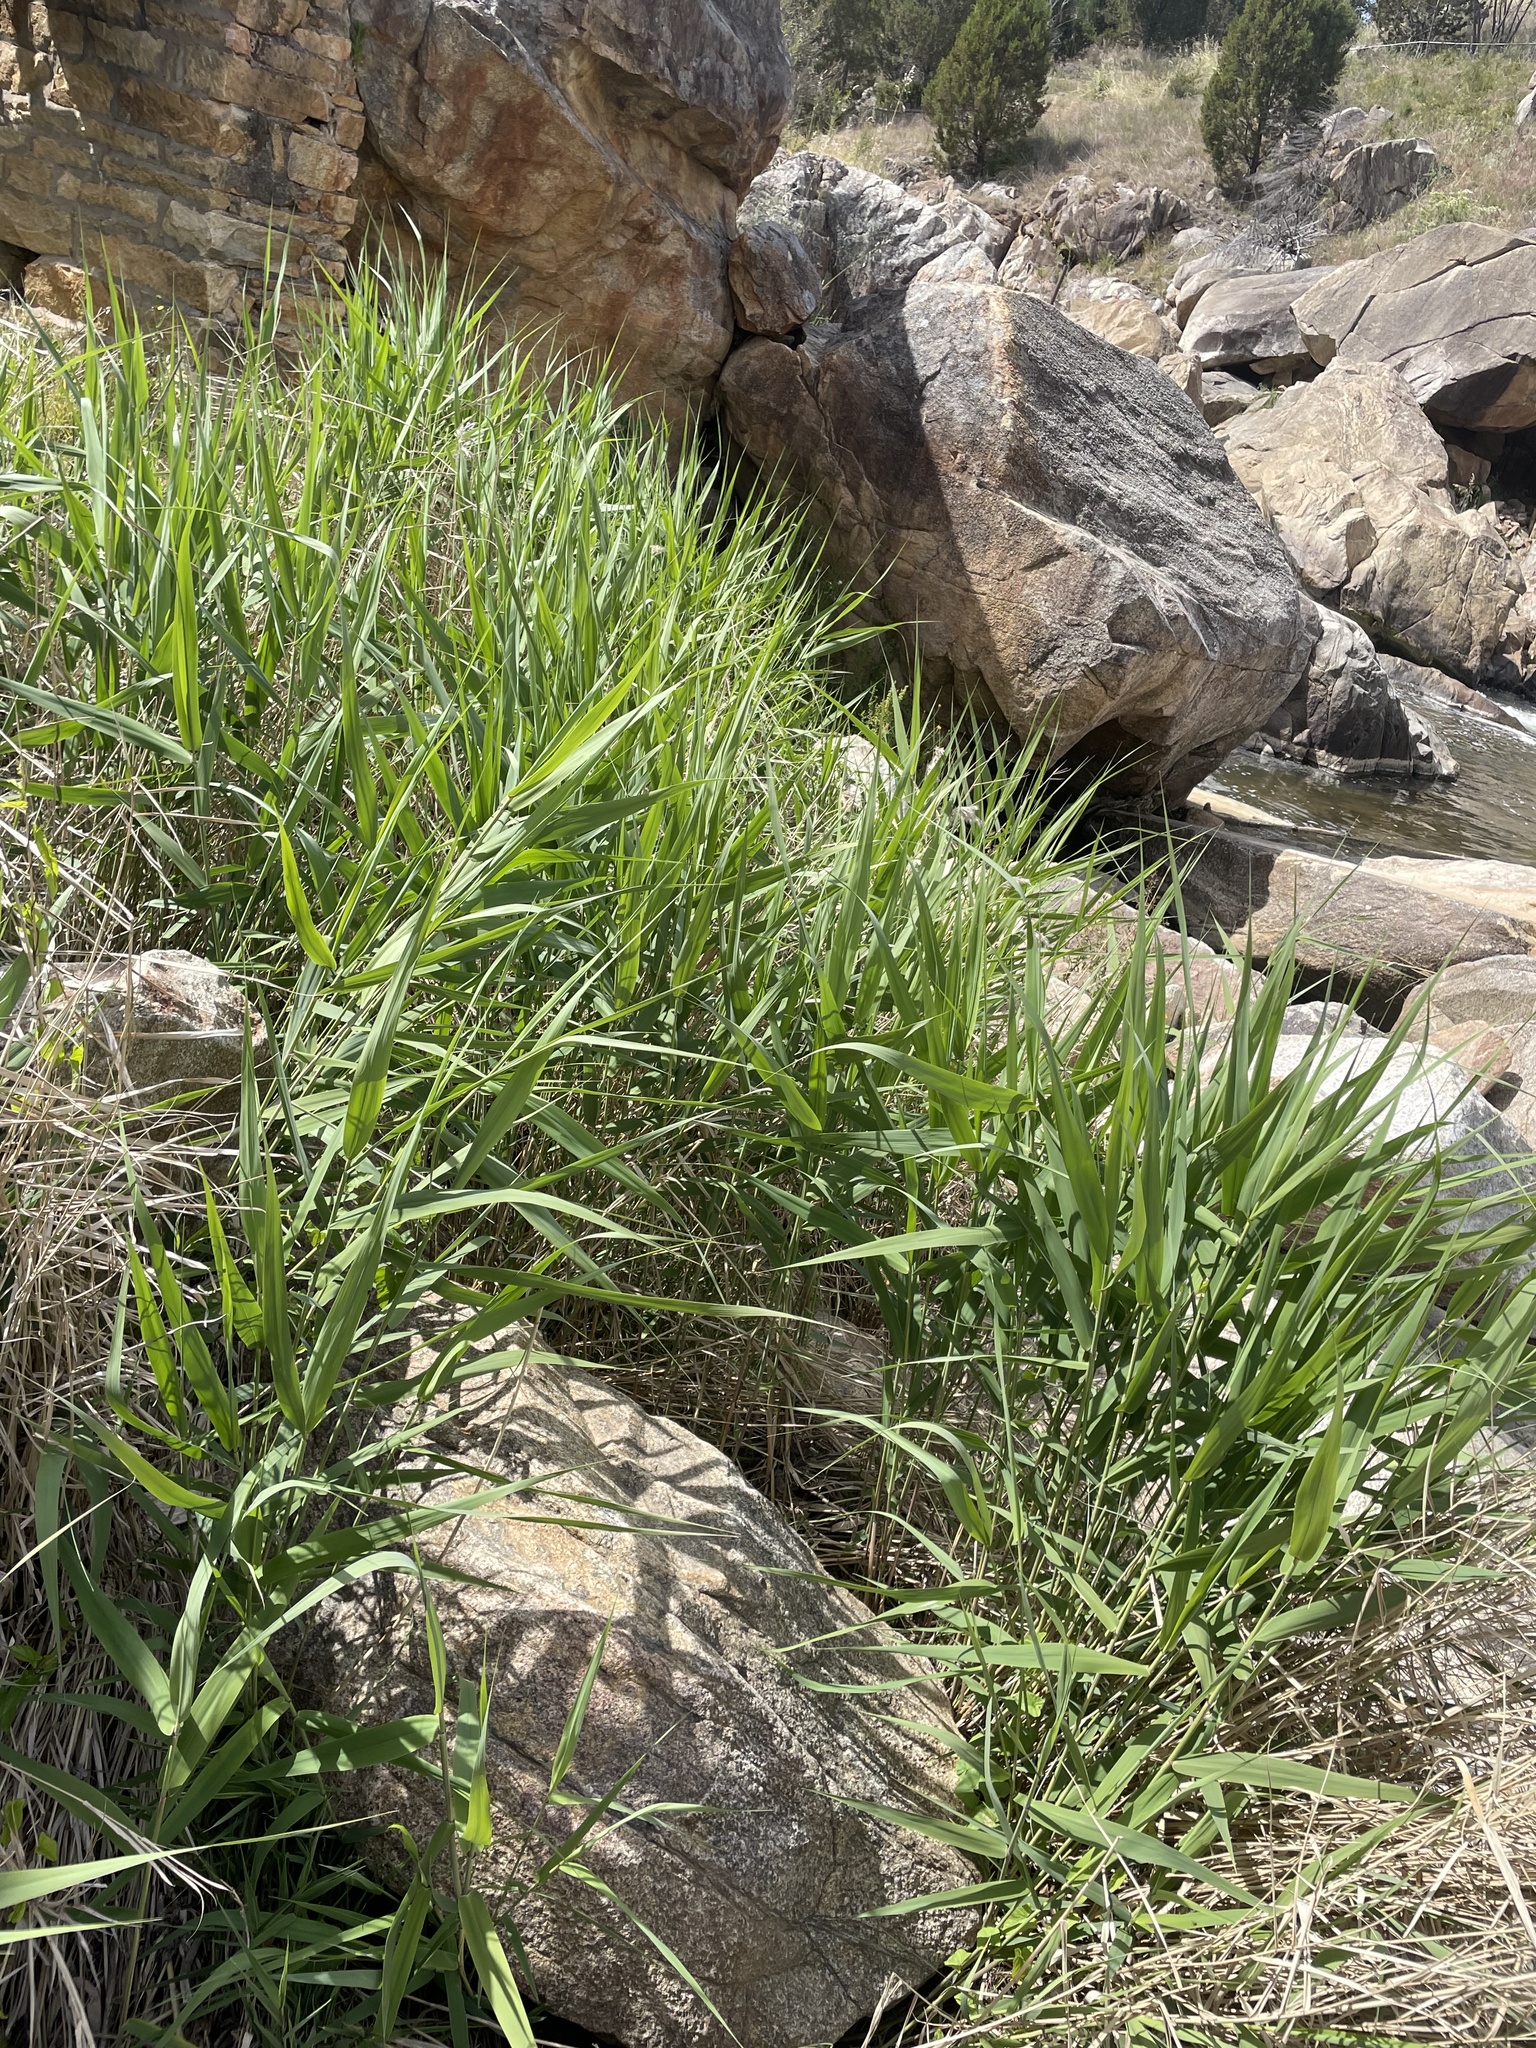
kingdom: Plantae
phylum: Tracheophyta
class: Liliopsida
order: Poales
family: Poaceae
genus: Phragmites
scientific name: Phragmites australis
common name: Common reed
